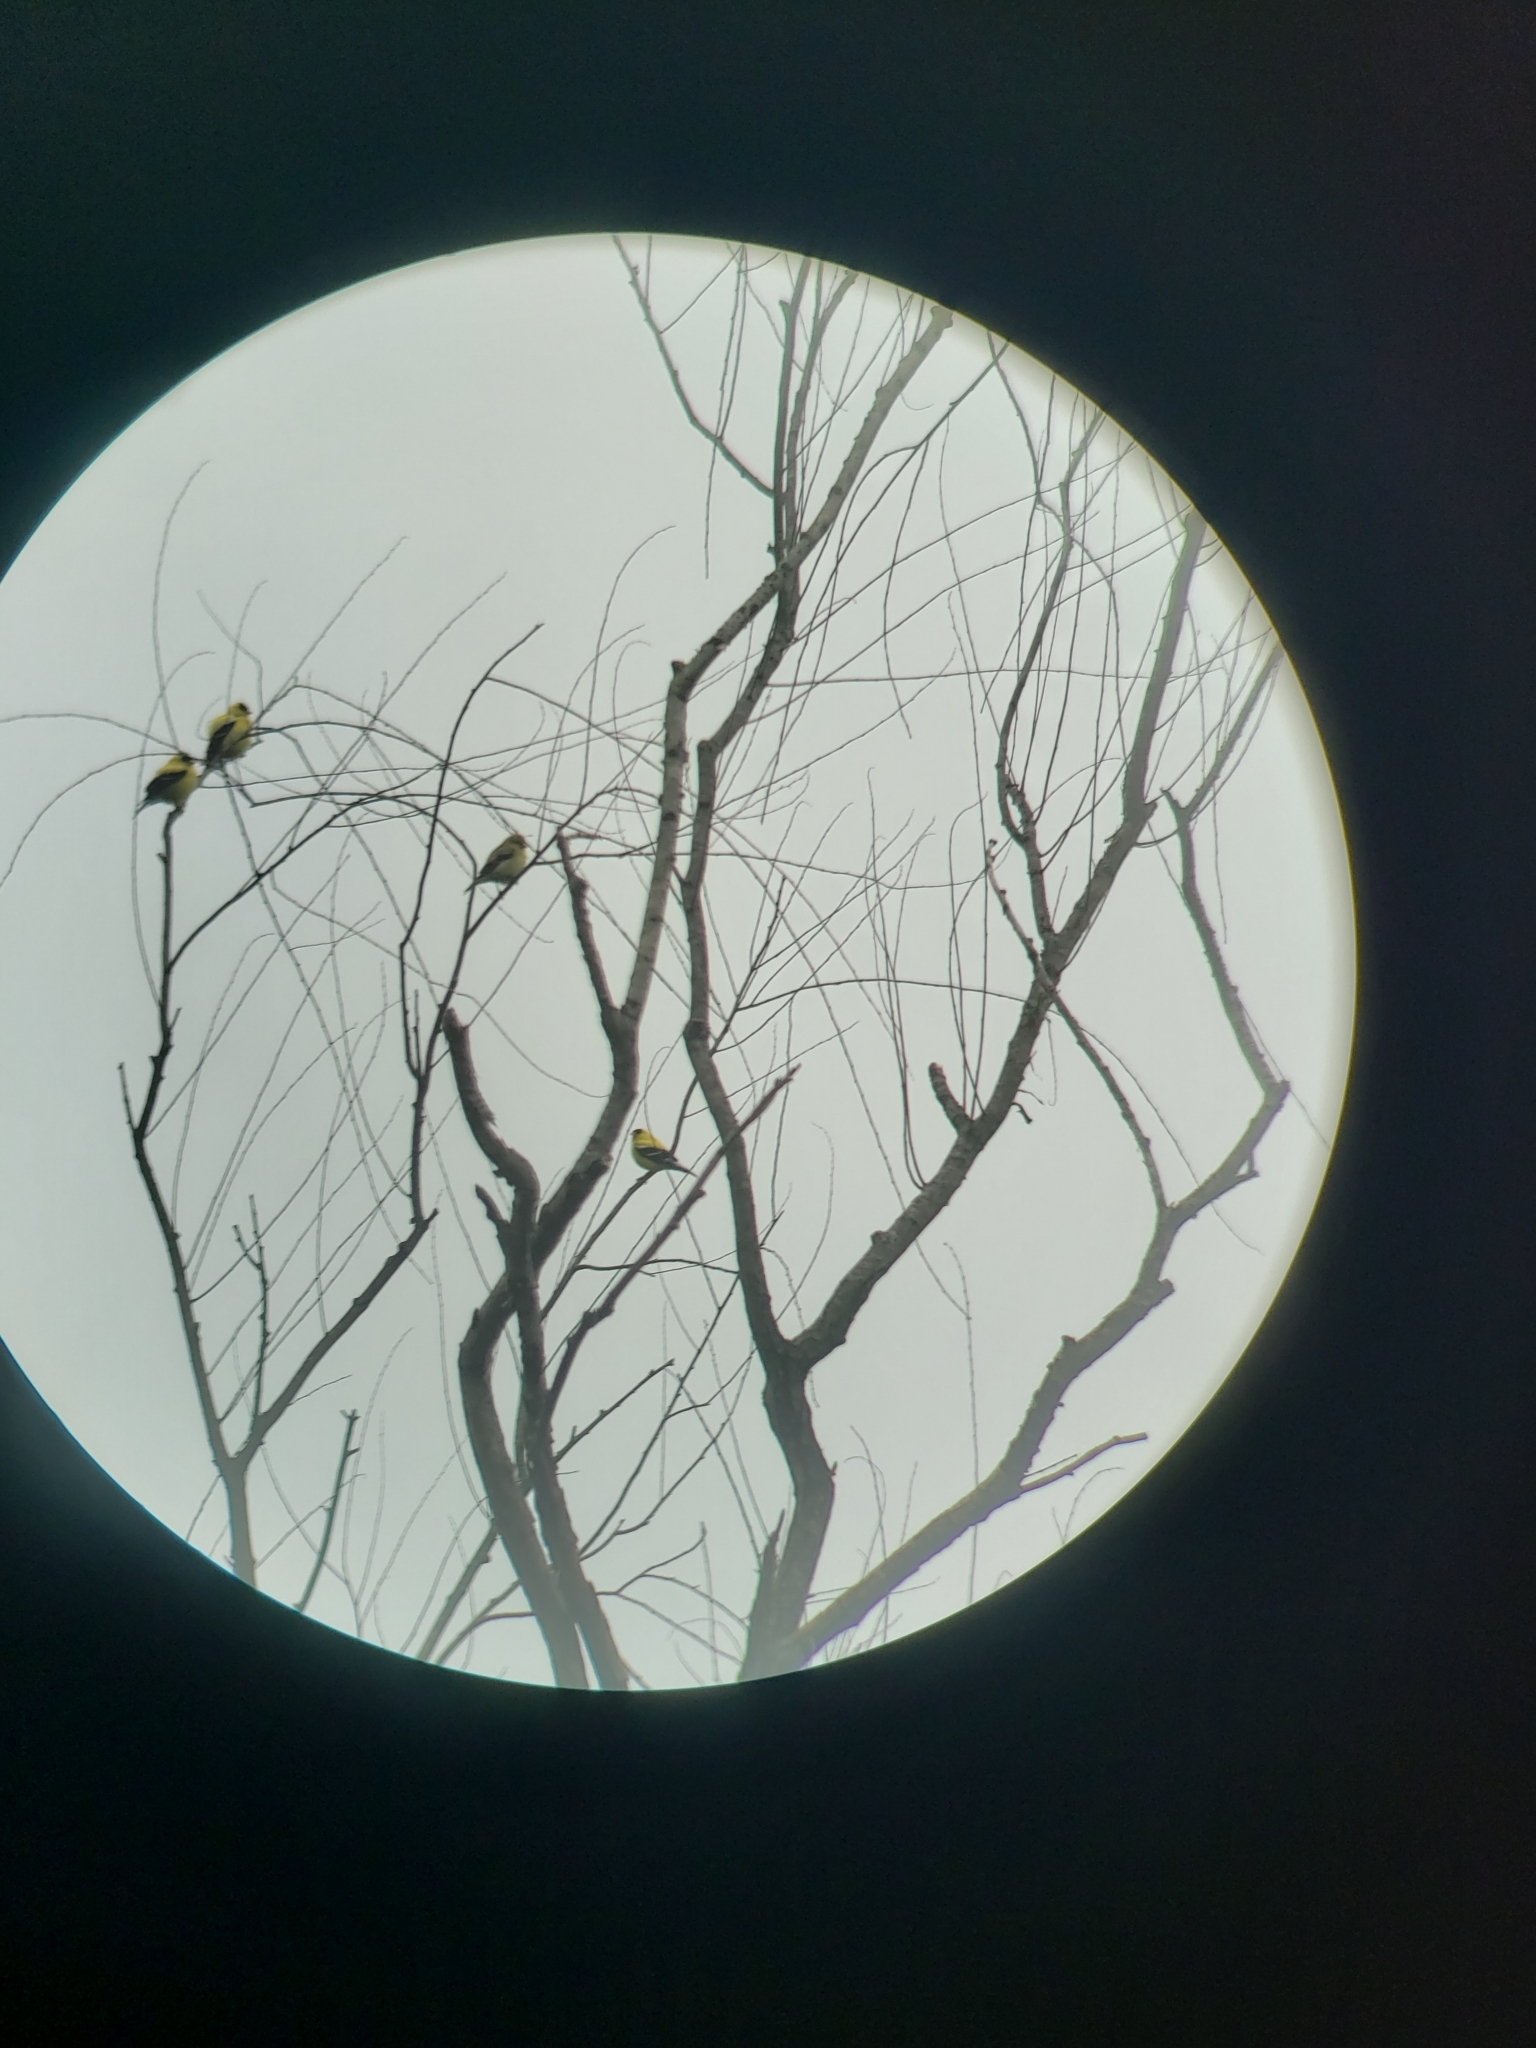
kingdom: Animalia
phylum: Chordata
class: Aves
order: Passeriformes
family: Fringillidae
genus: Spinus
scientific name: Spinus tristis
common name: American goldfinch
